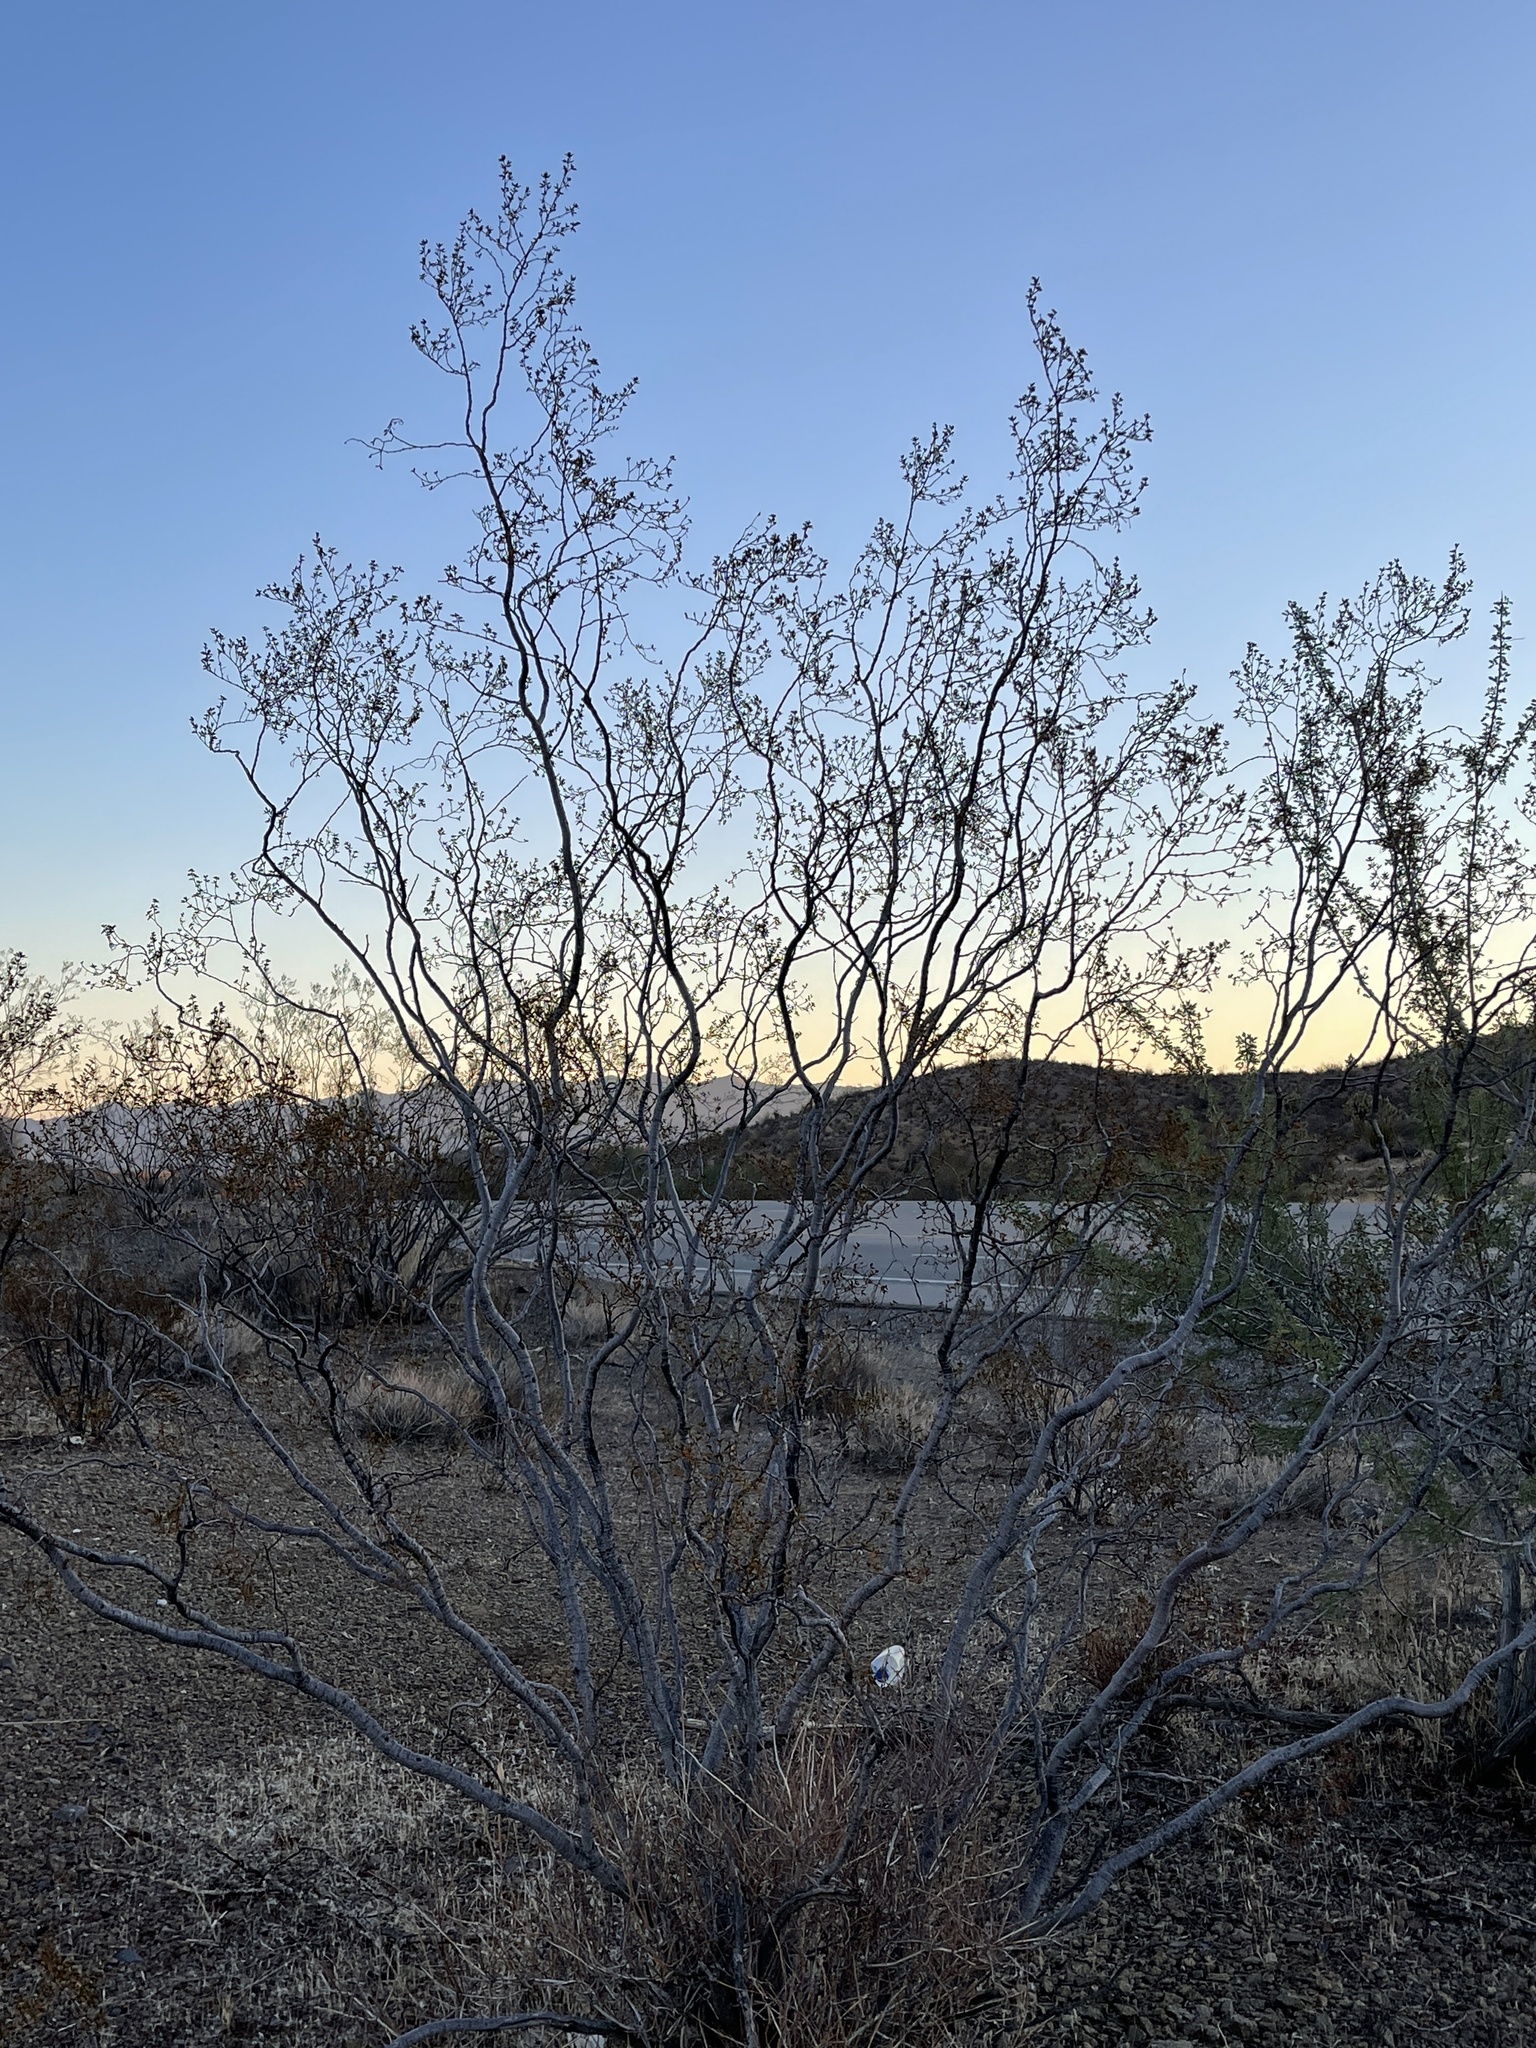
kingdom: Plantae
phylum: Tracheophyta
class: Magnoliopsida
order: Zygophyllales
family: Zygophyllaceae
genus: Larrea
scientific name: Larrea tridentata
